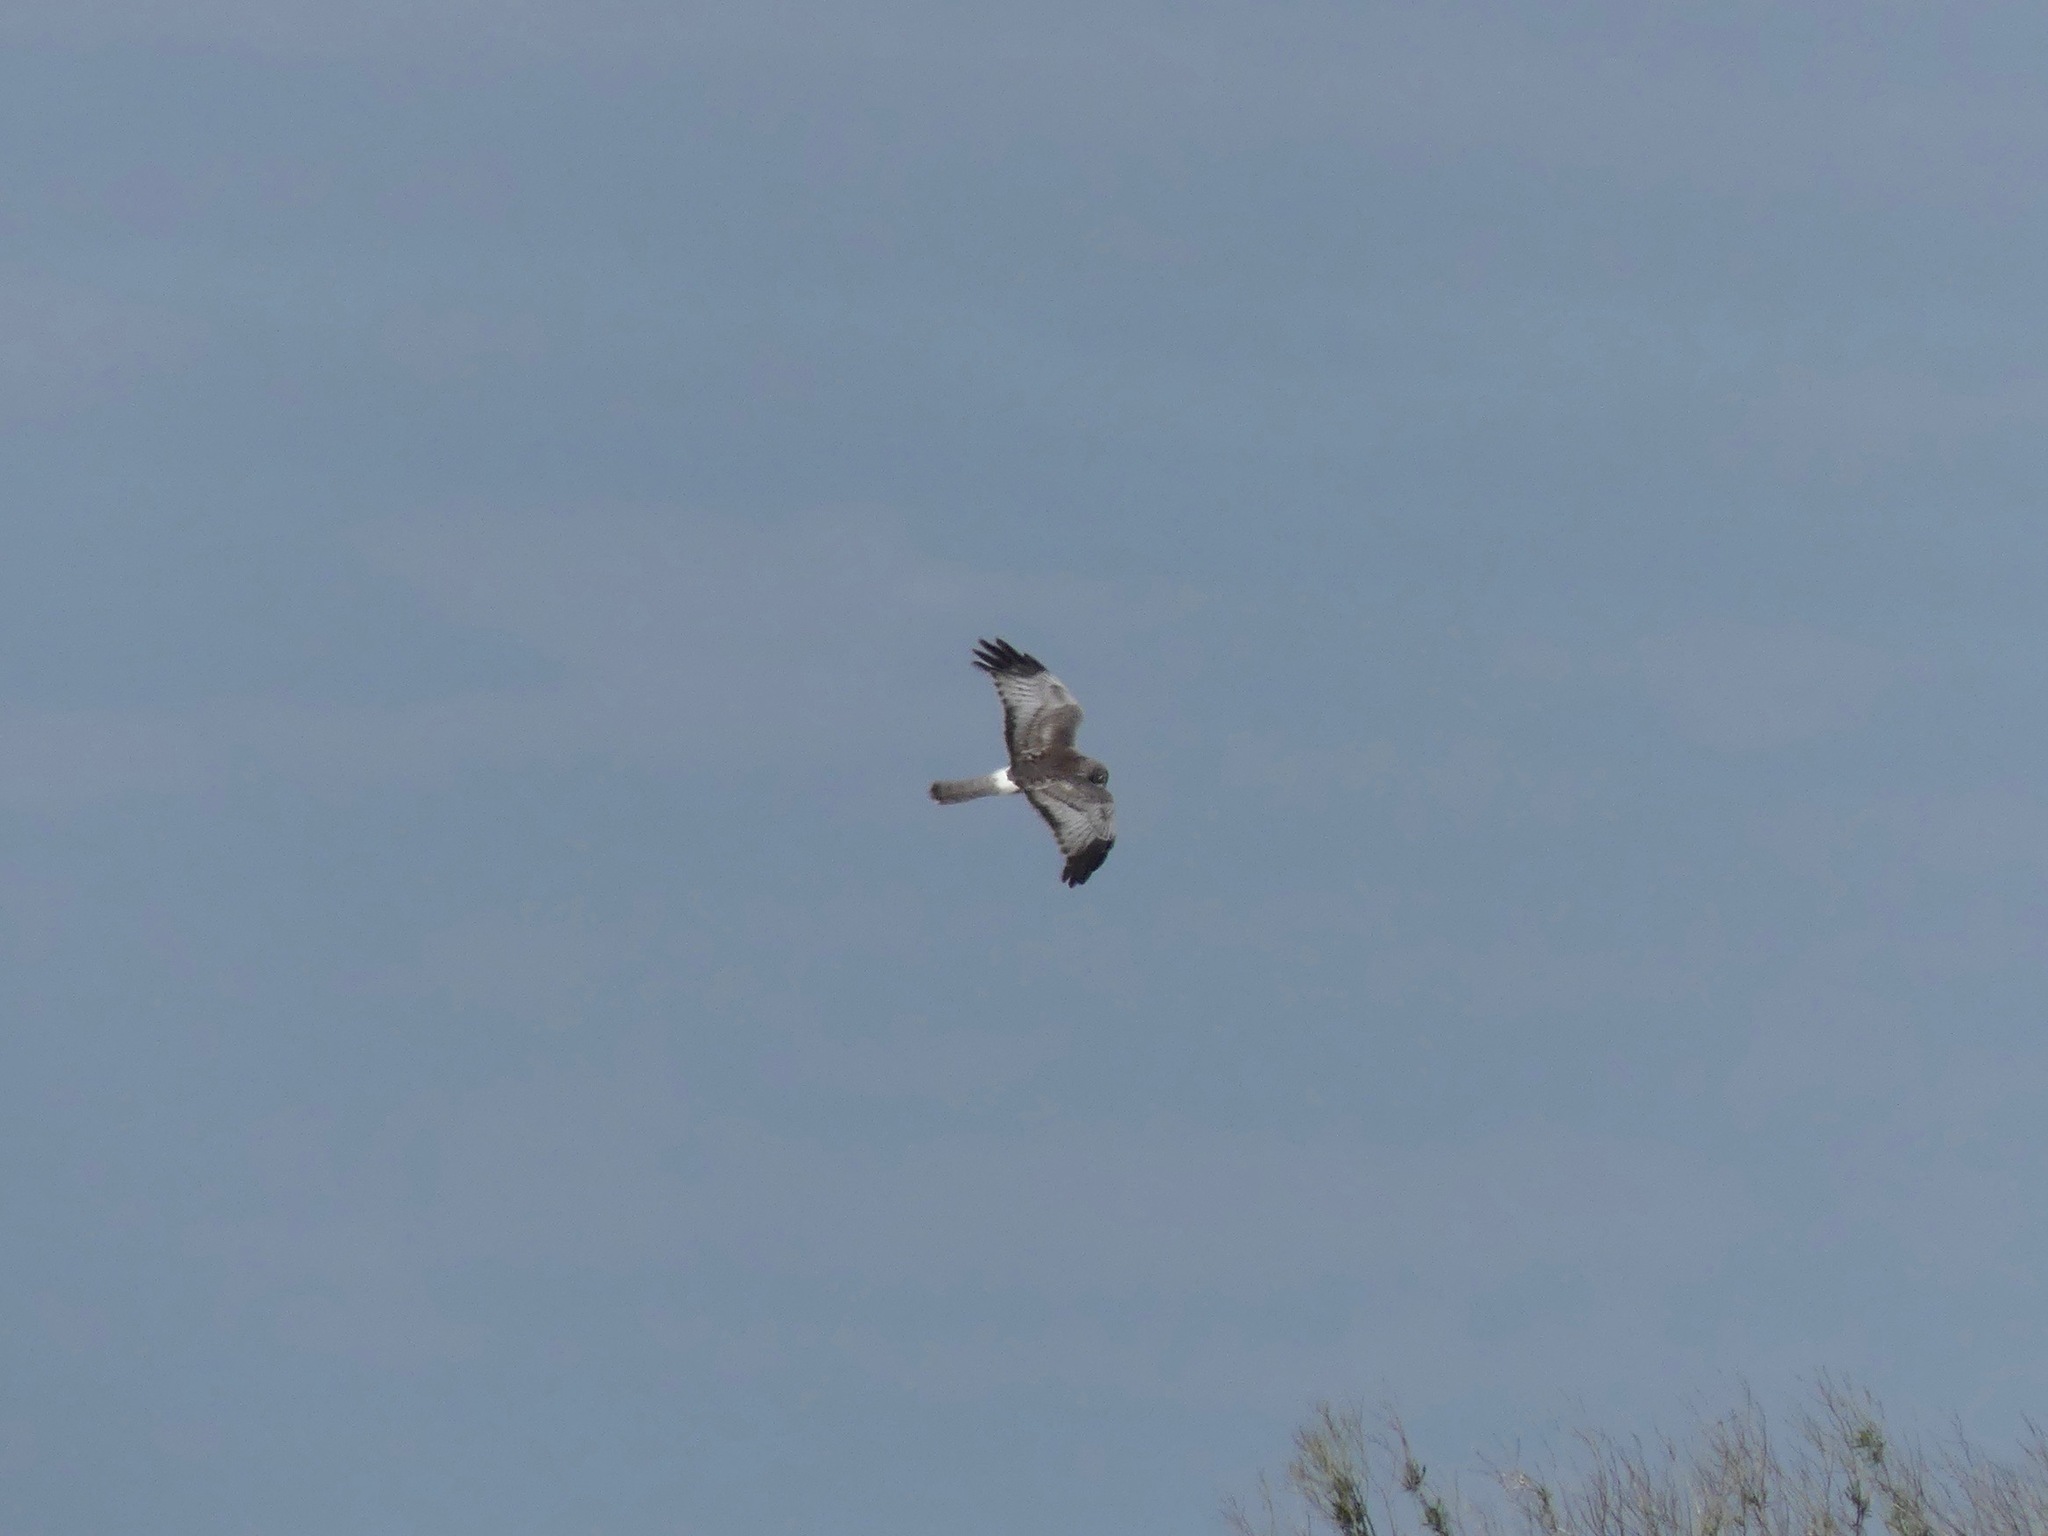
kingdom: Animalia
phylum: Chordata
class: Aves
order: Accipitriformes
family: Accipitridae
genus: Circus
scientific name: Circus cyaneus
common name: Hen harrier
